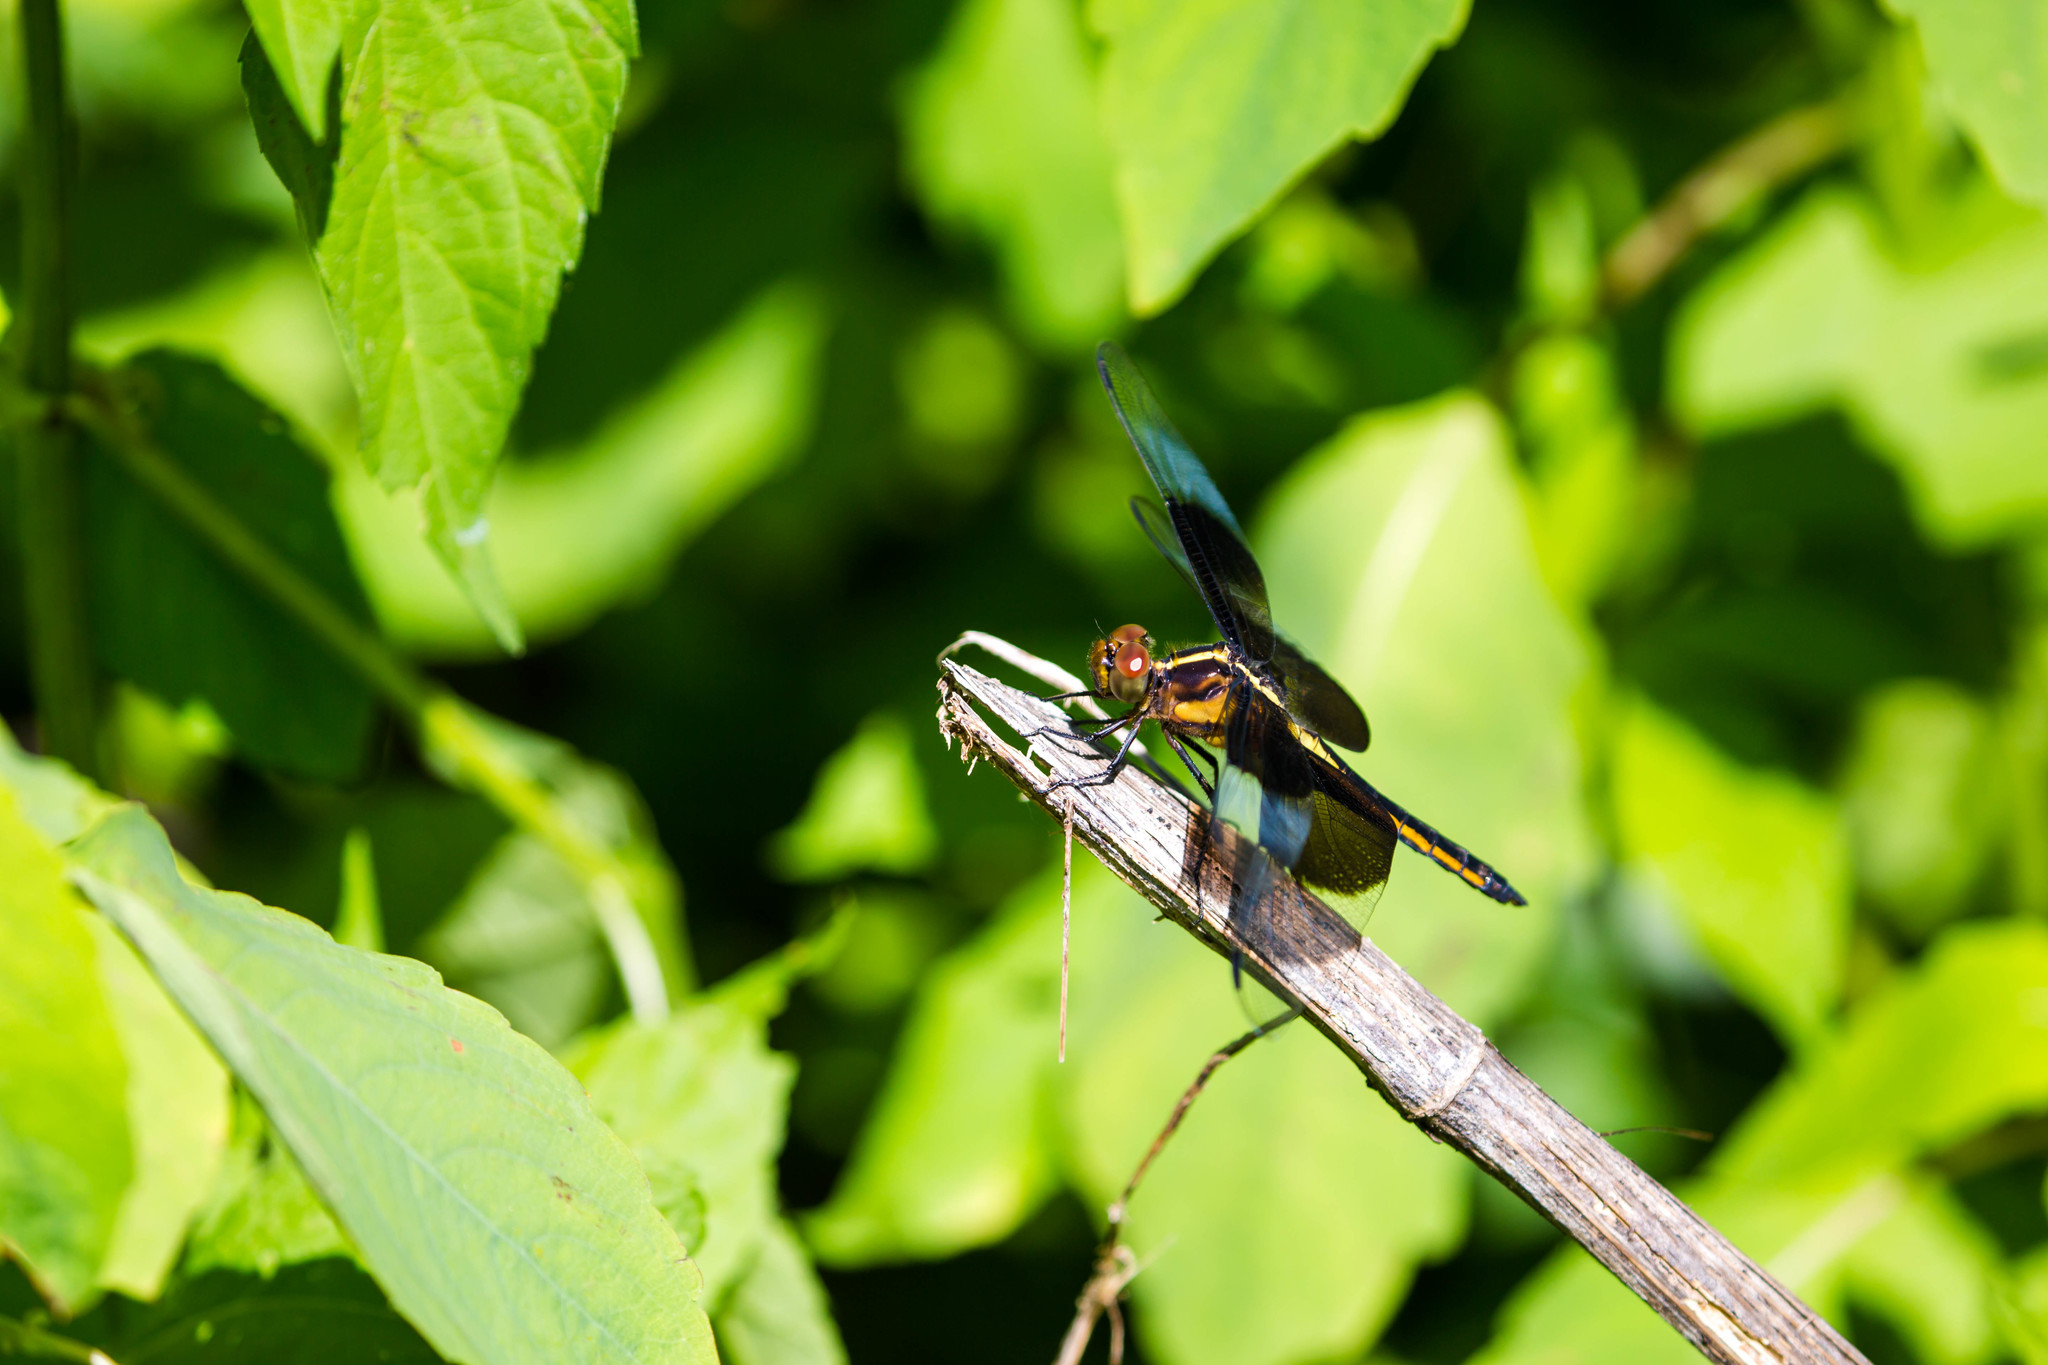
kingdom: Animalia
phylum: Arthropoda
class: Insecta
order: Odonata
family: Libellulidae
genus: Libellula
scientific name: Libellula luctuosa
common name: Widow skimmer
